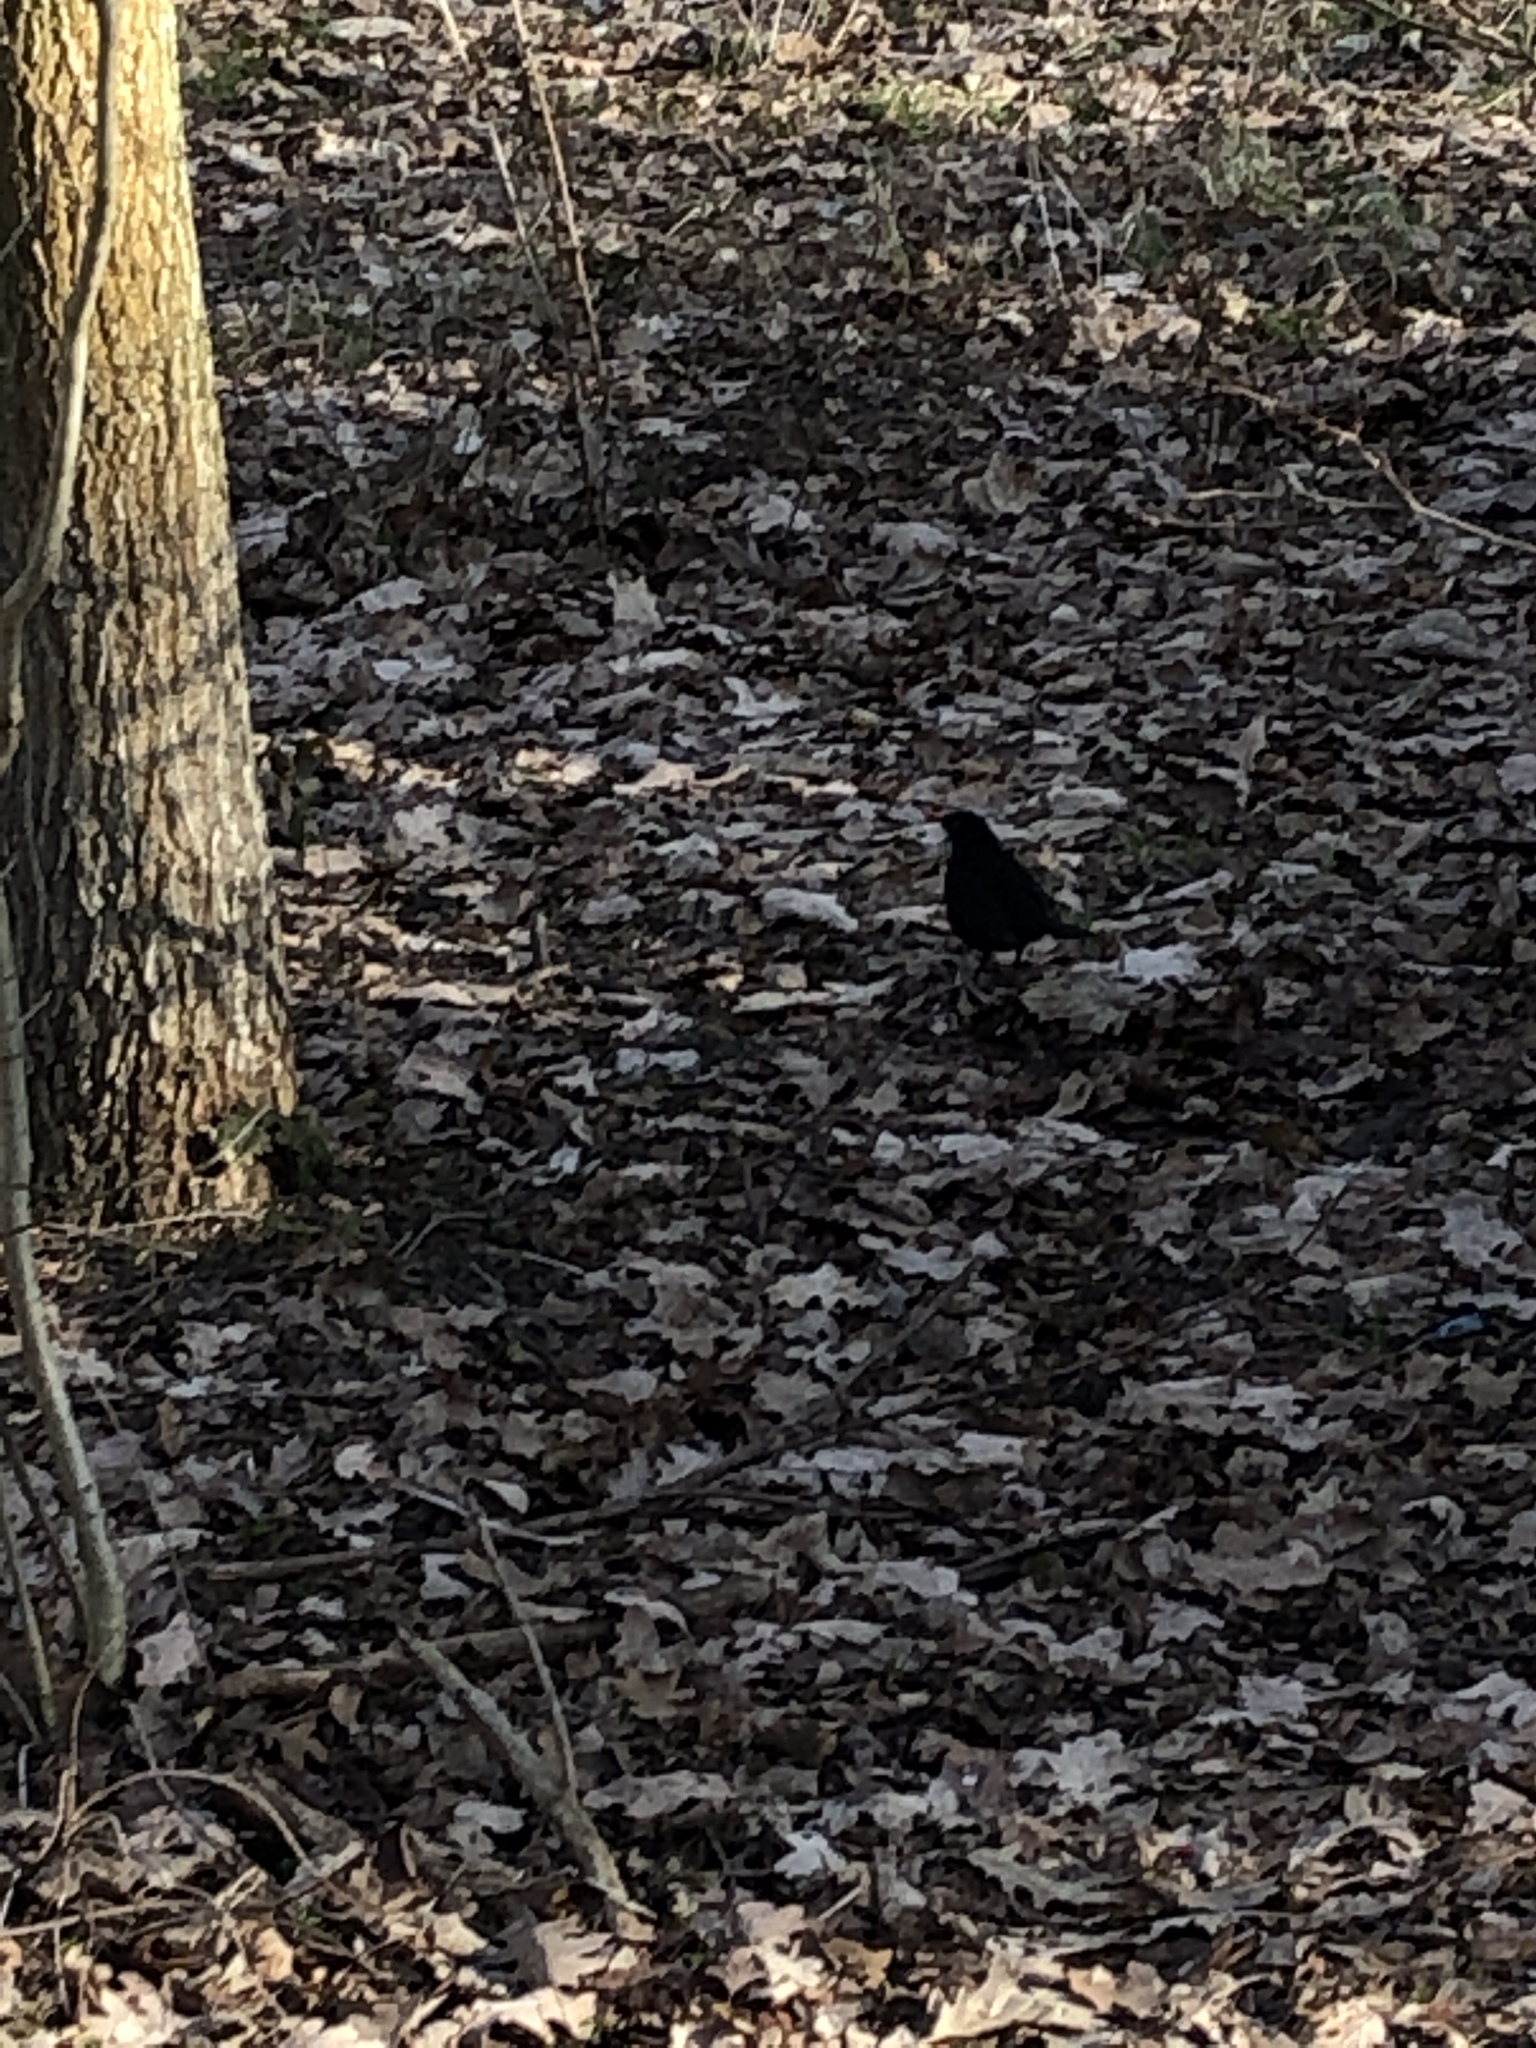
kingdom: Animalia
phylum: Chordata
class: Aves
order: Passeriformes
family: Turdidae
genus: Turdus
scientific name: Turdus merula
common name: Common blackbird
